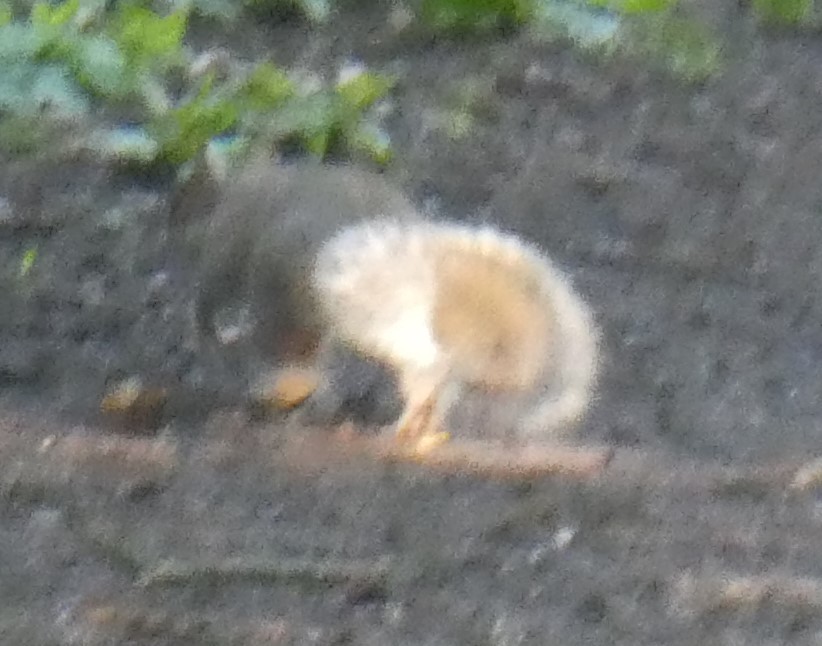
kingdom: Animalia
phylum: Chordata
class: Mammalia
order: Rodentia
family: Sciuridae
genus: Sciurus
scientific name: Sciurus carolinensis
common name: Eastern gray squirrel
